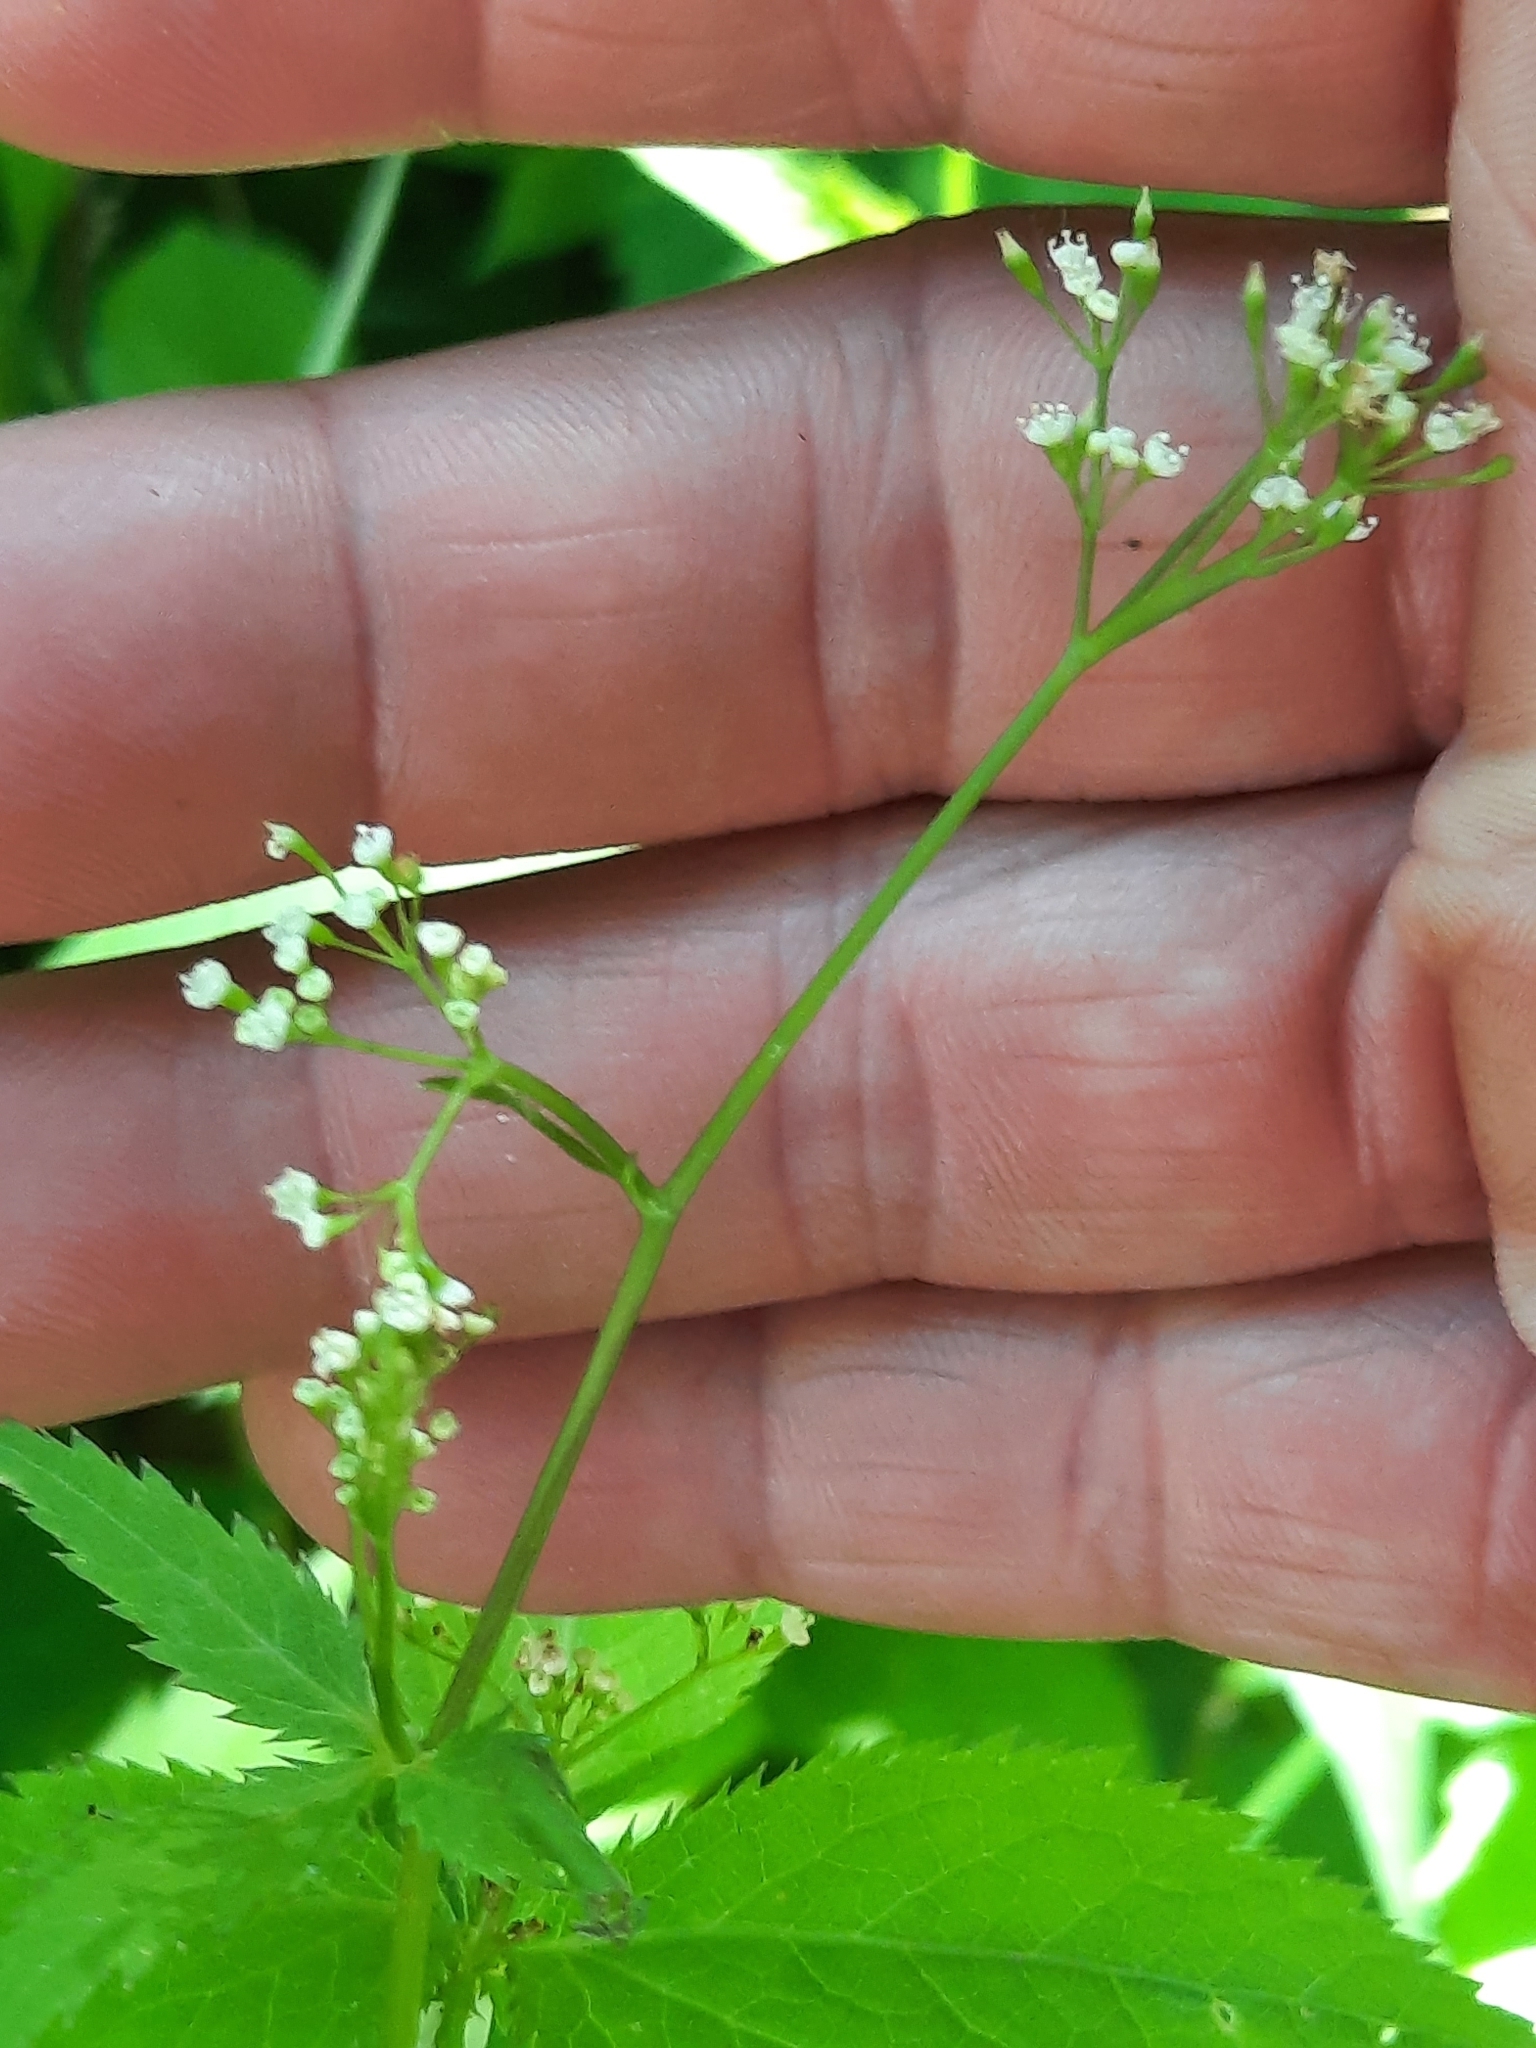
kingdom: Plantae
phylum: Tracheophyta
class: Magnoliopsida
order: Apiales
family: Apiaceae
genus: Cryptotaenia
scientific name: Cryptotaenia canadensis
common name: Honewort
